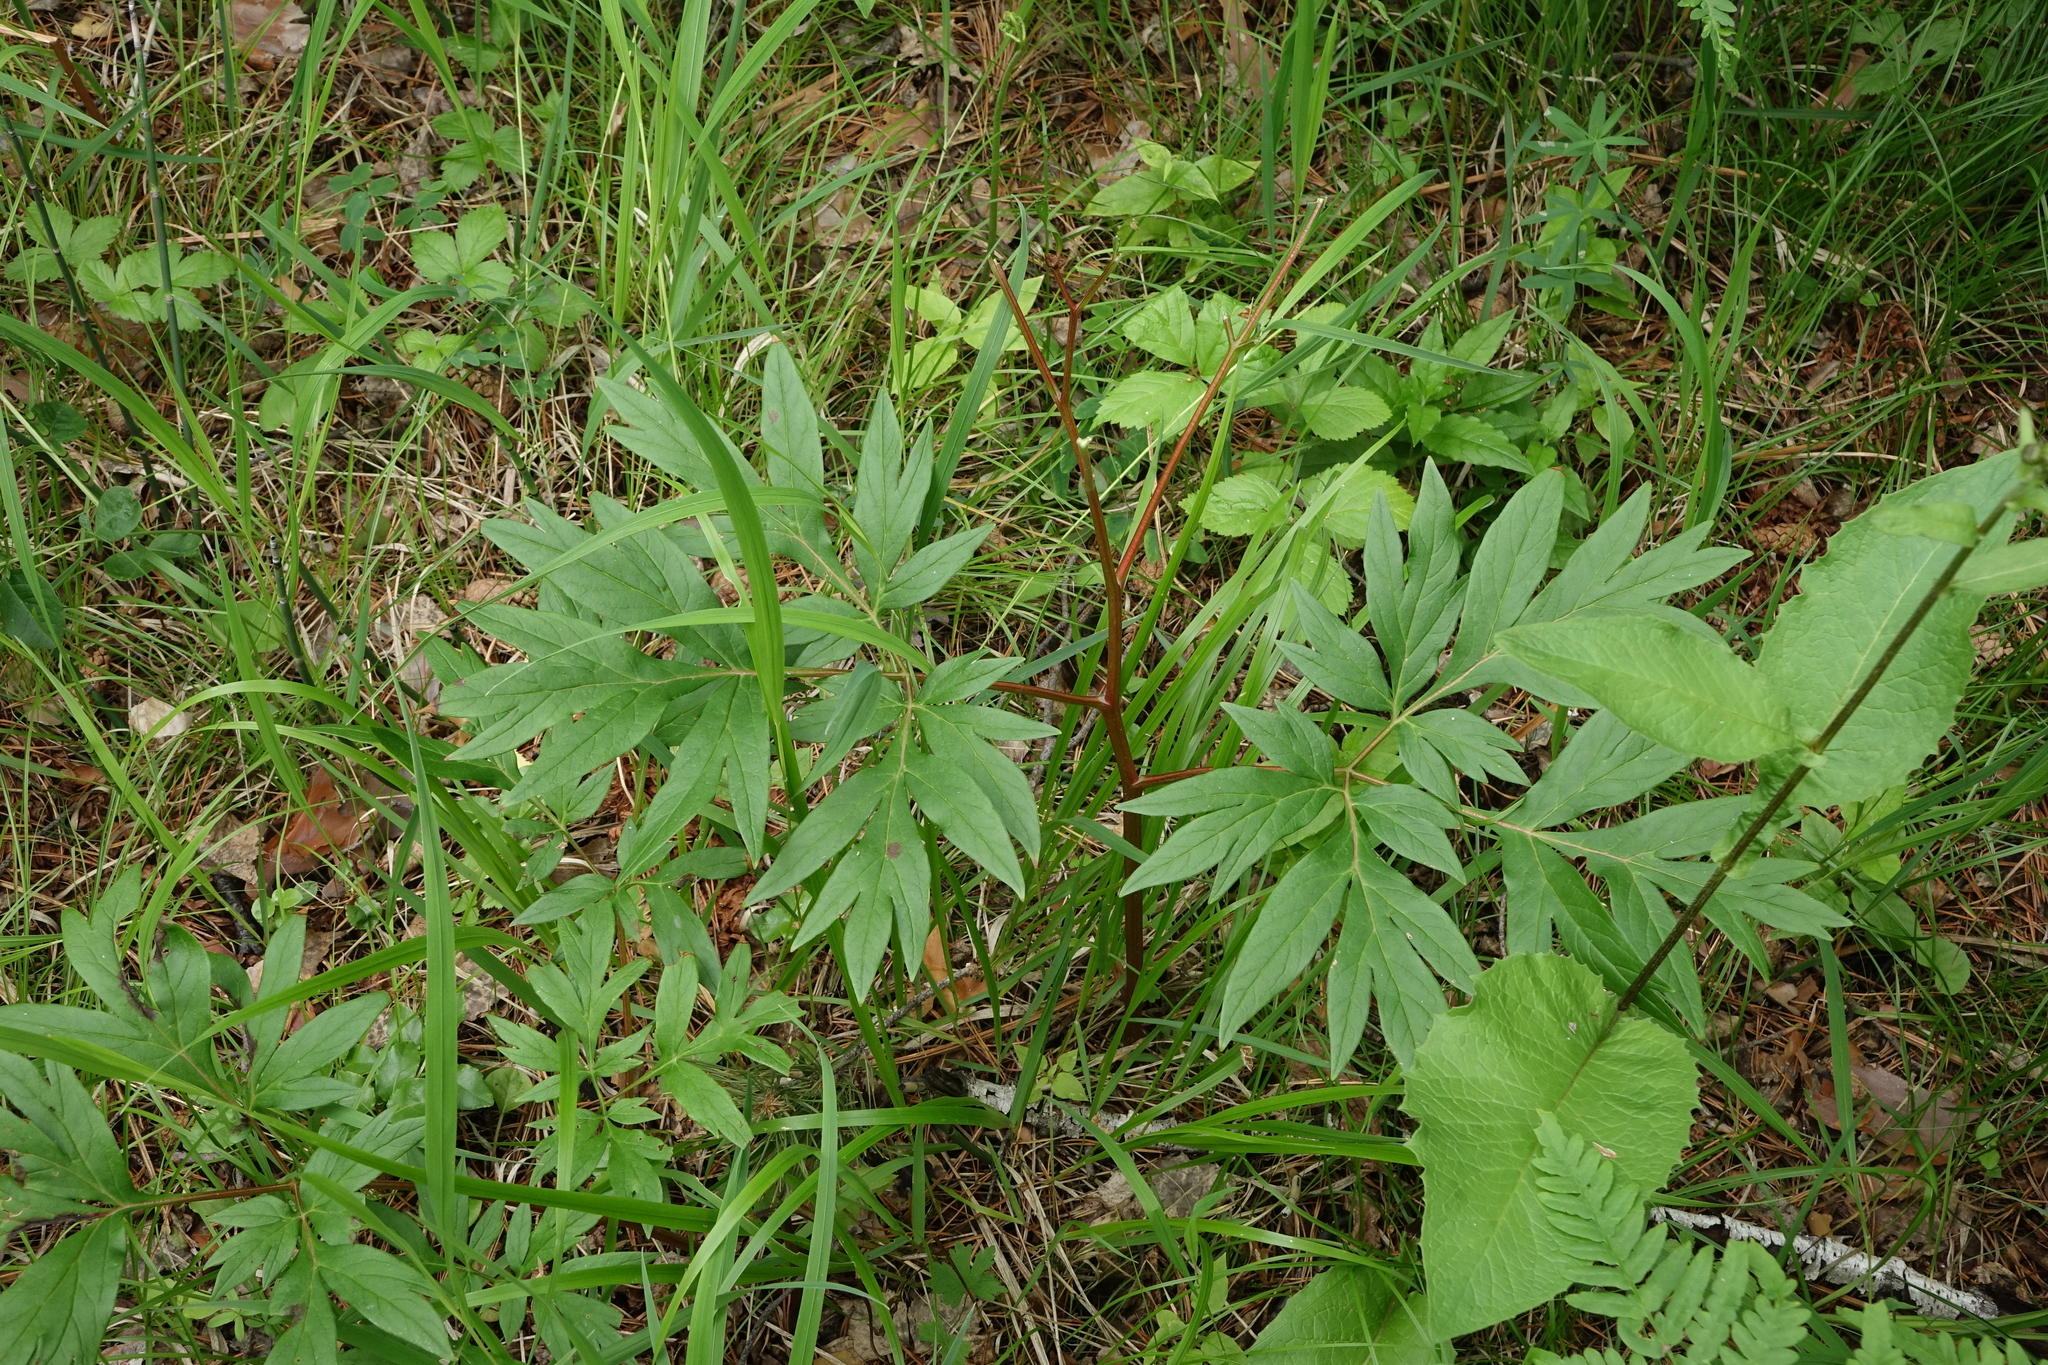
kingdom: Plantae
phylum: Tracheophyta
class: Magnoliopsida
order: Saxifragales
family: Paeoniaceae
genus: Paeonia
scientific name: Paeonia anomala
